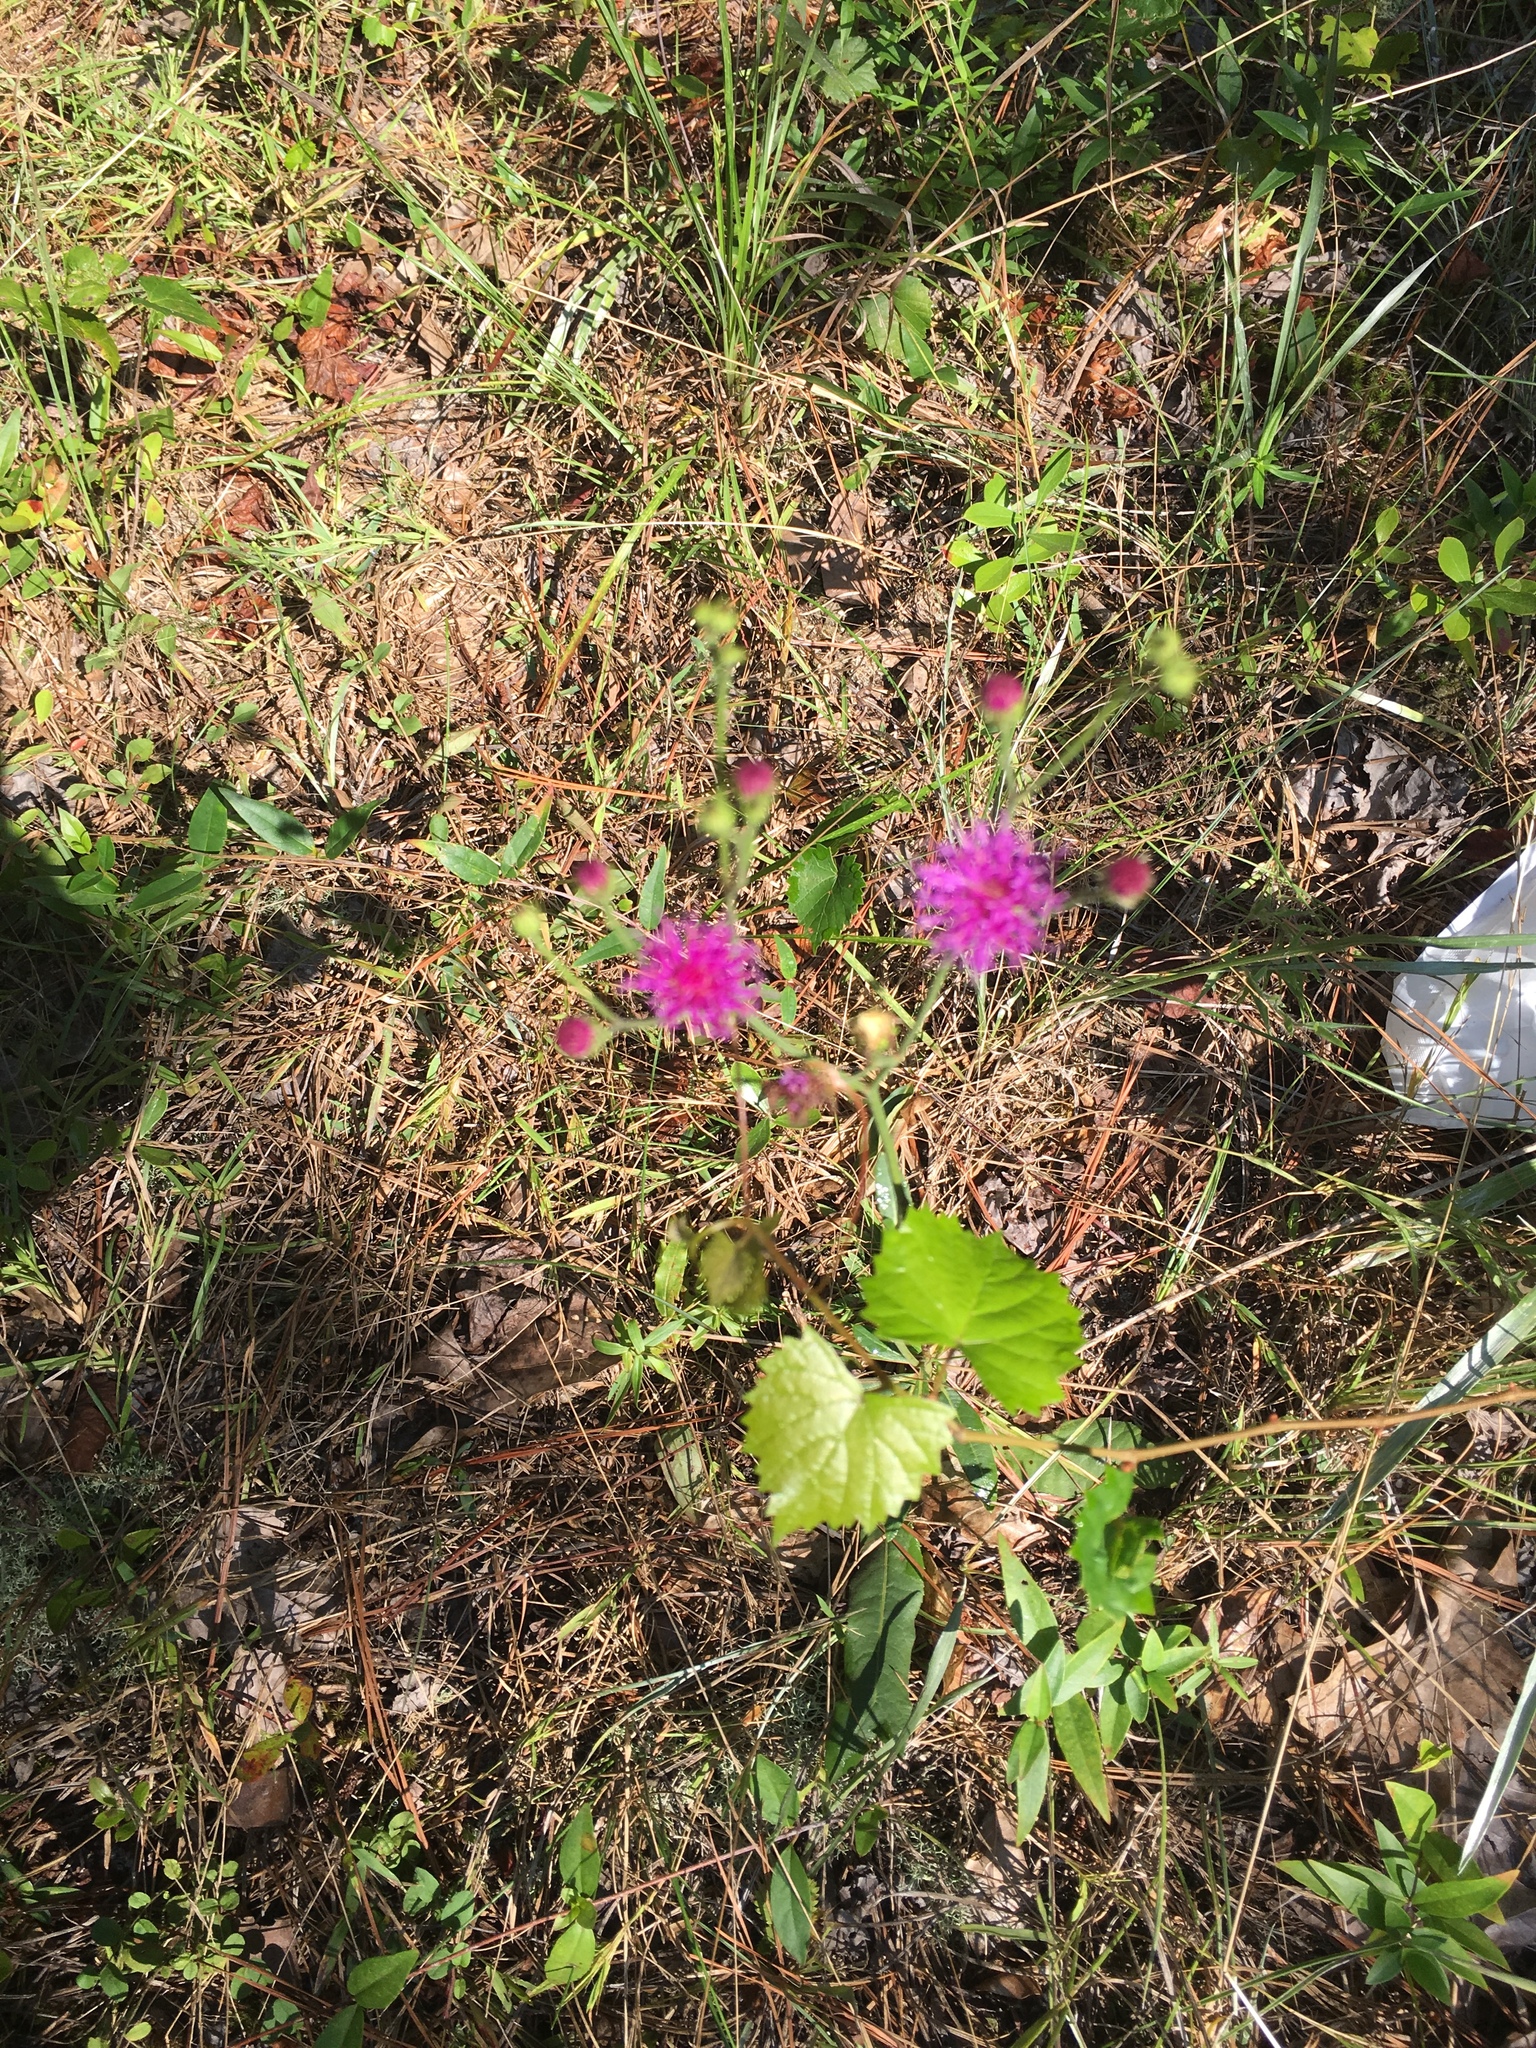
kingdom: Plantae
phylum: Tracheophyta
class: Magnoliopsida
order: Asterales
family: Asteraceae
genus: Vernonia
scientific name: Vernonia acaulis
